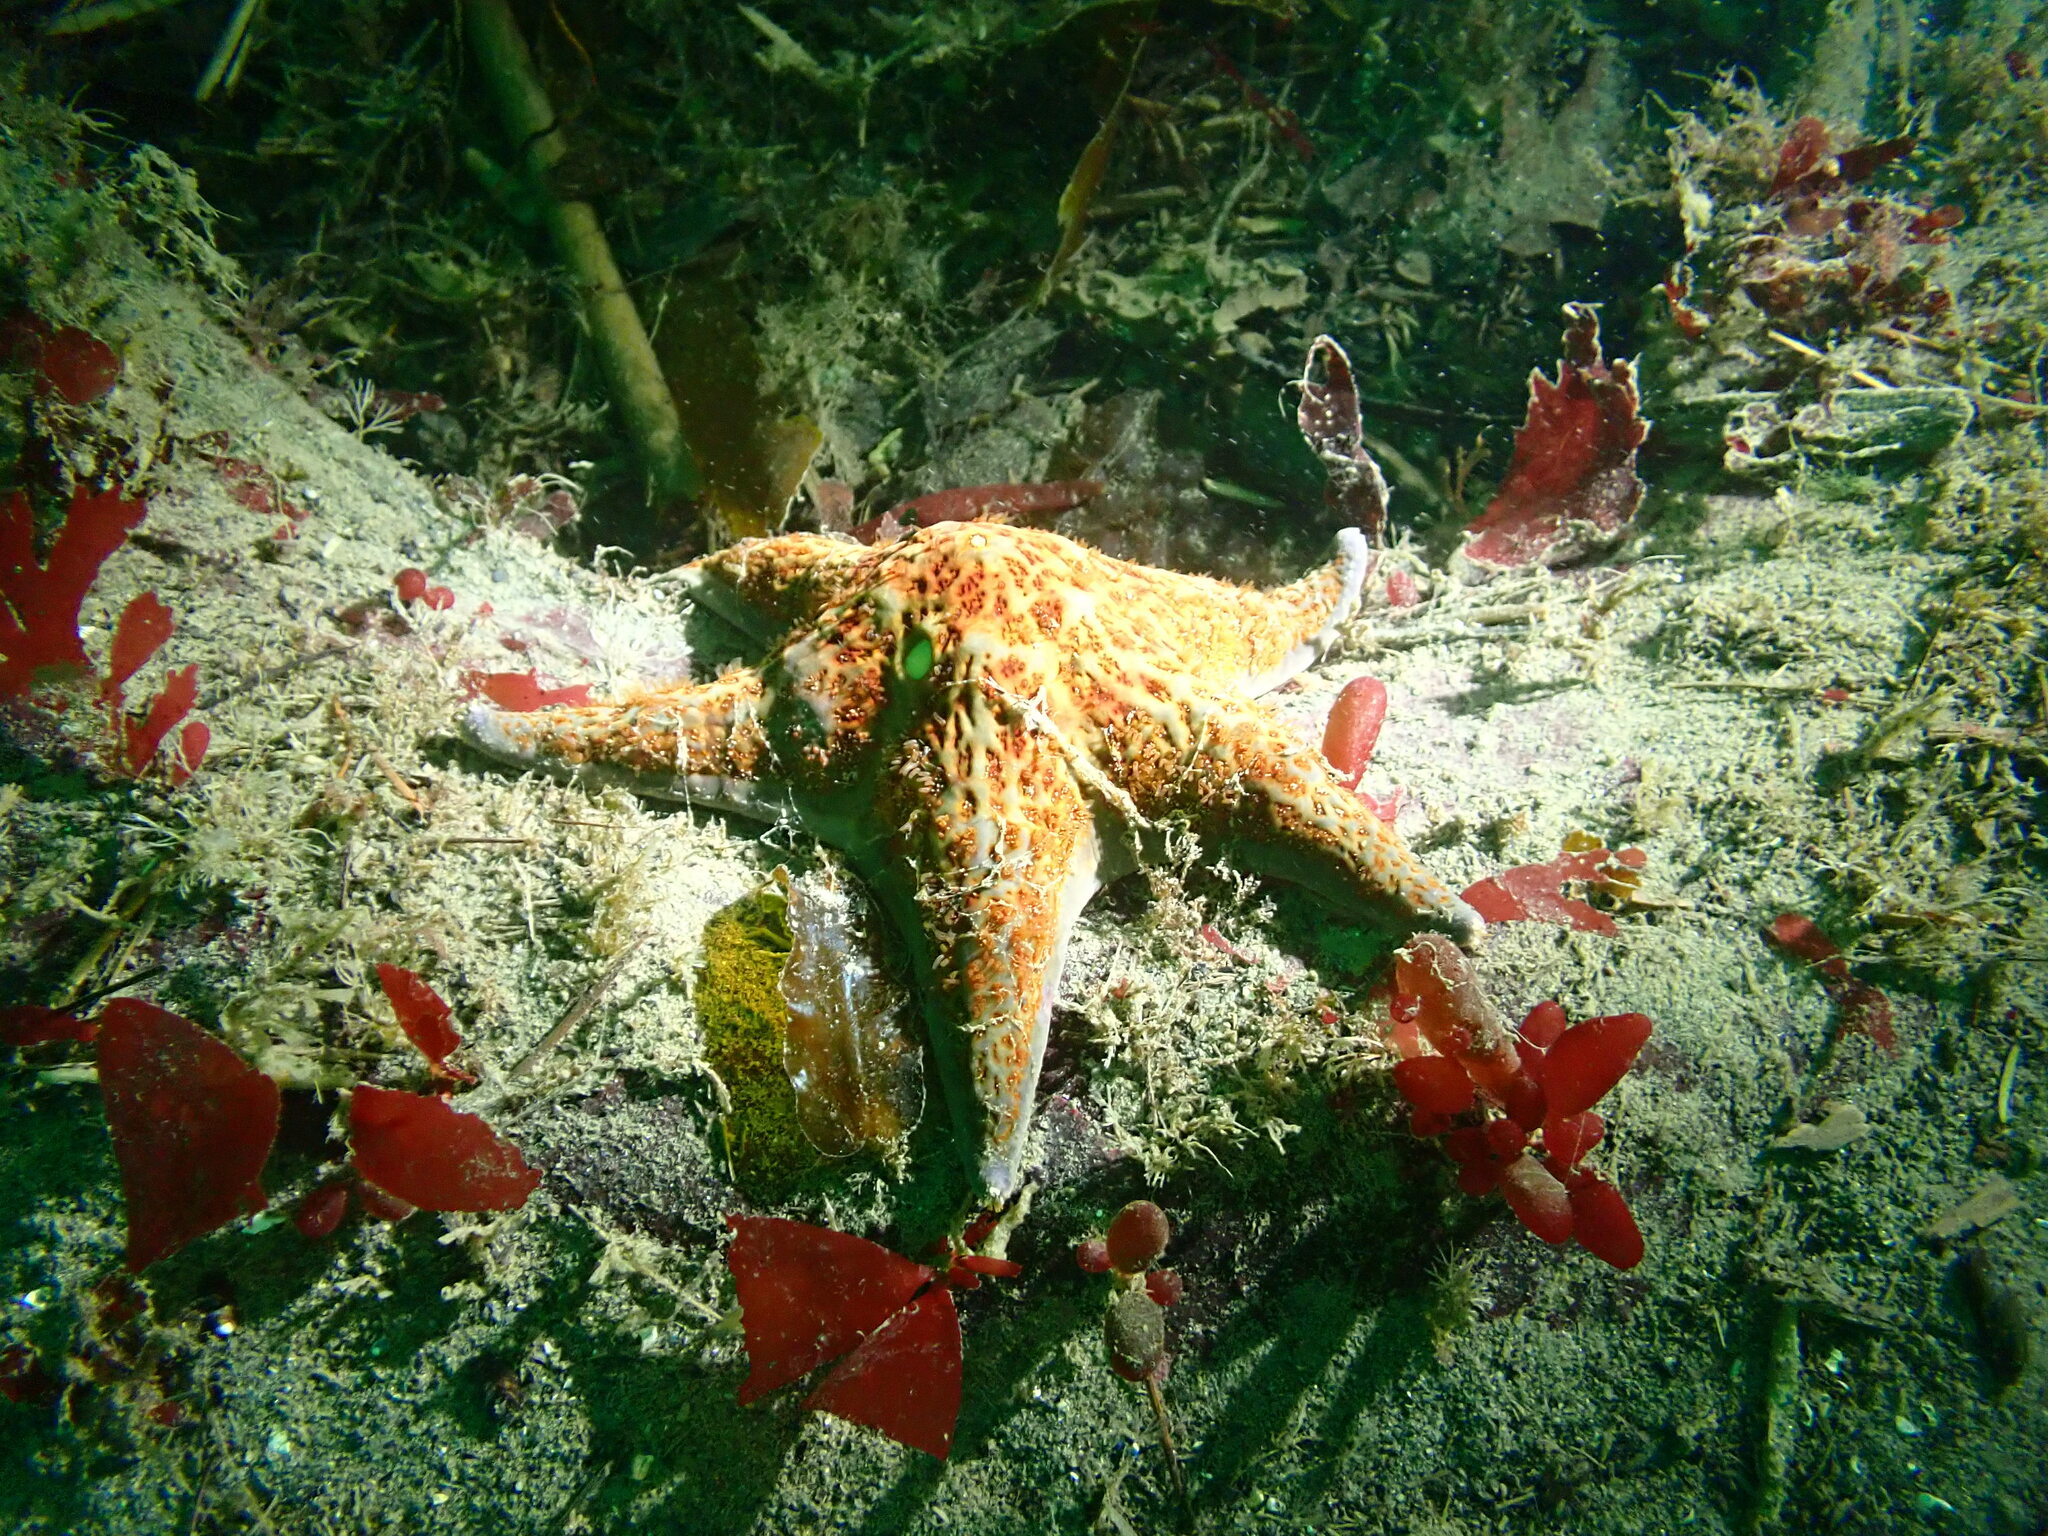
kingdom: Animalia
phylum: Echinodermata
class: Asteroidea
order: Valvatida
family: Asteropseidae
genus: Dermasterias
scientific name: Dermasterias imbricata
